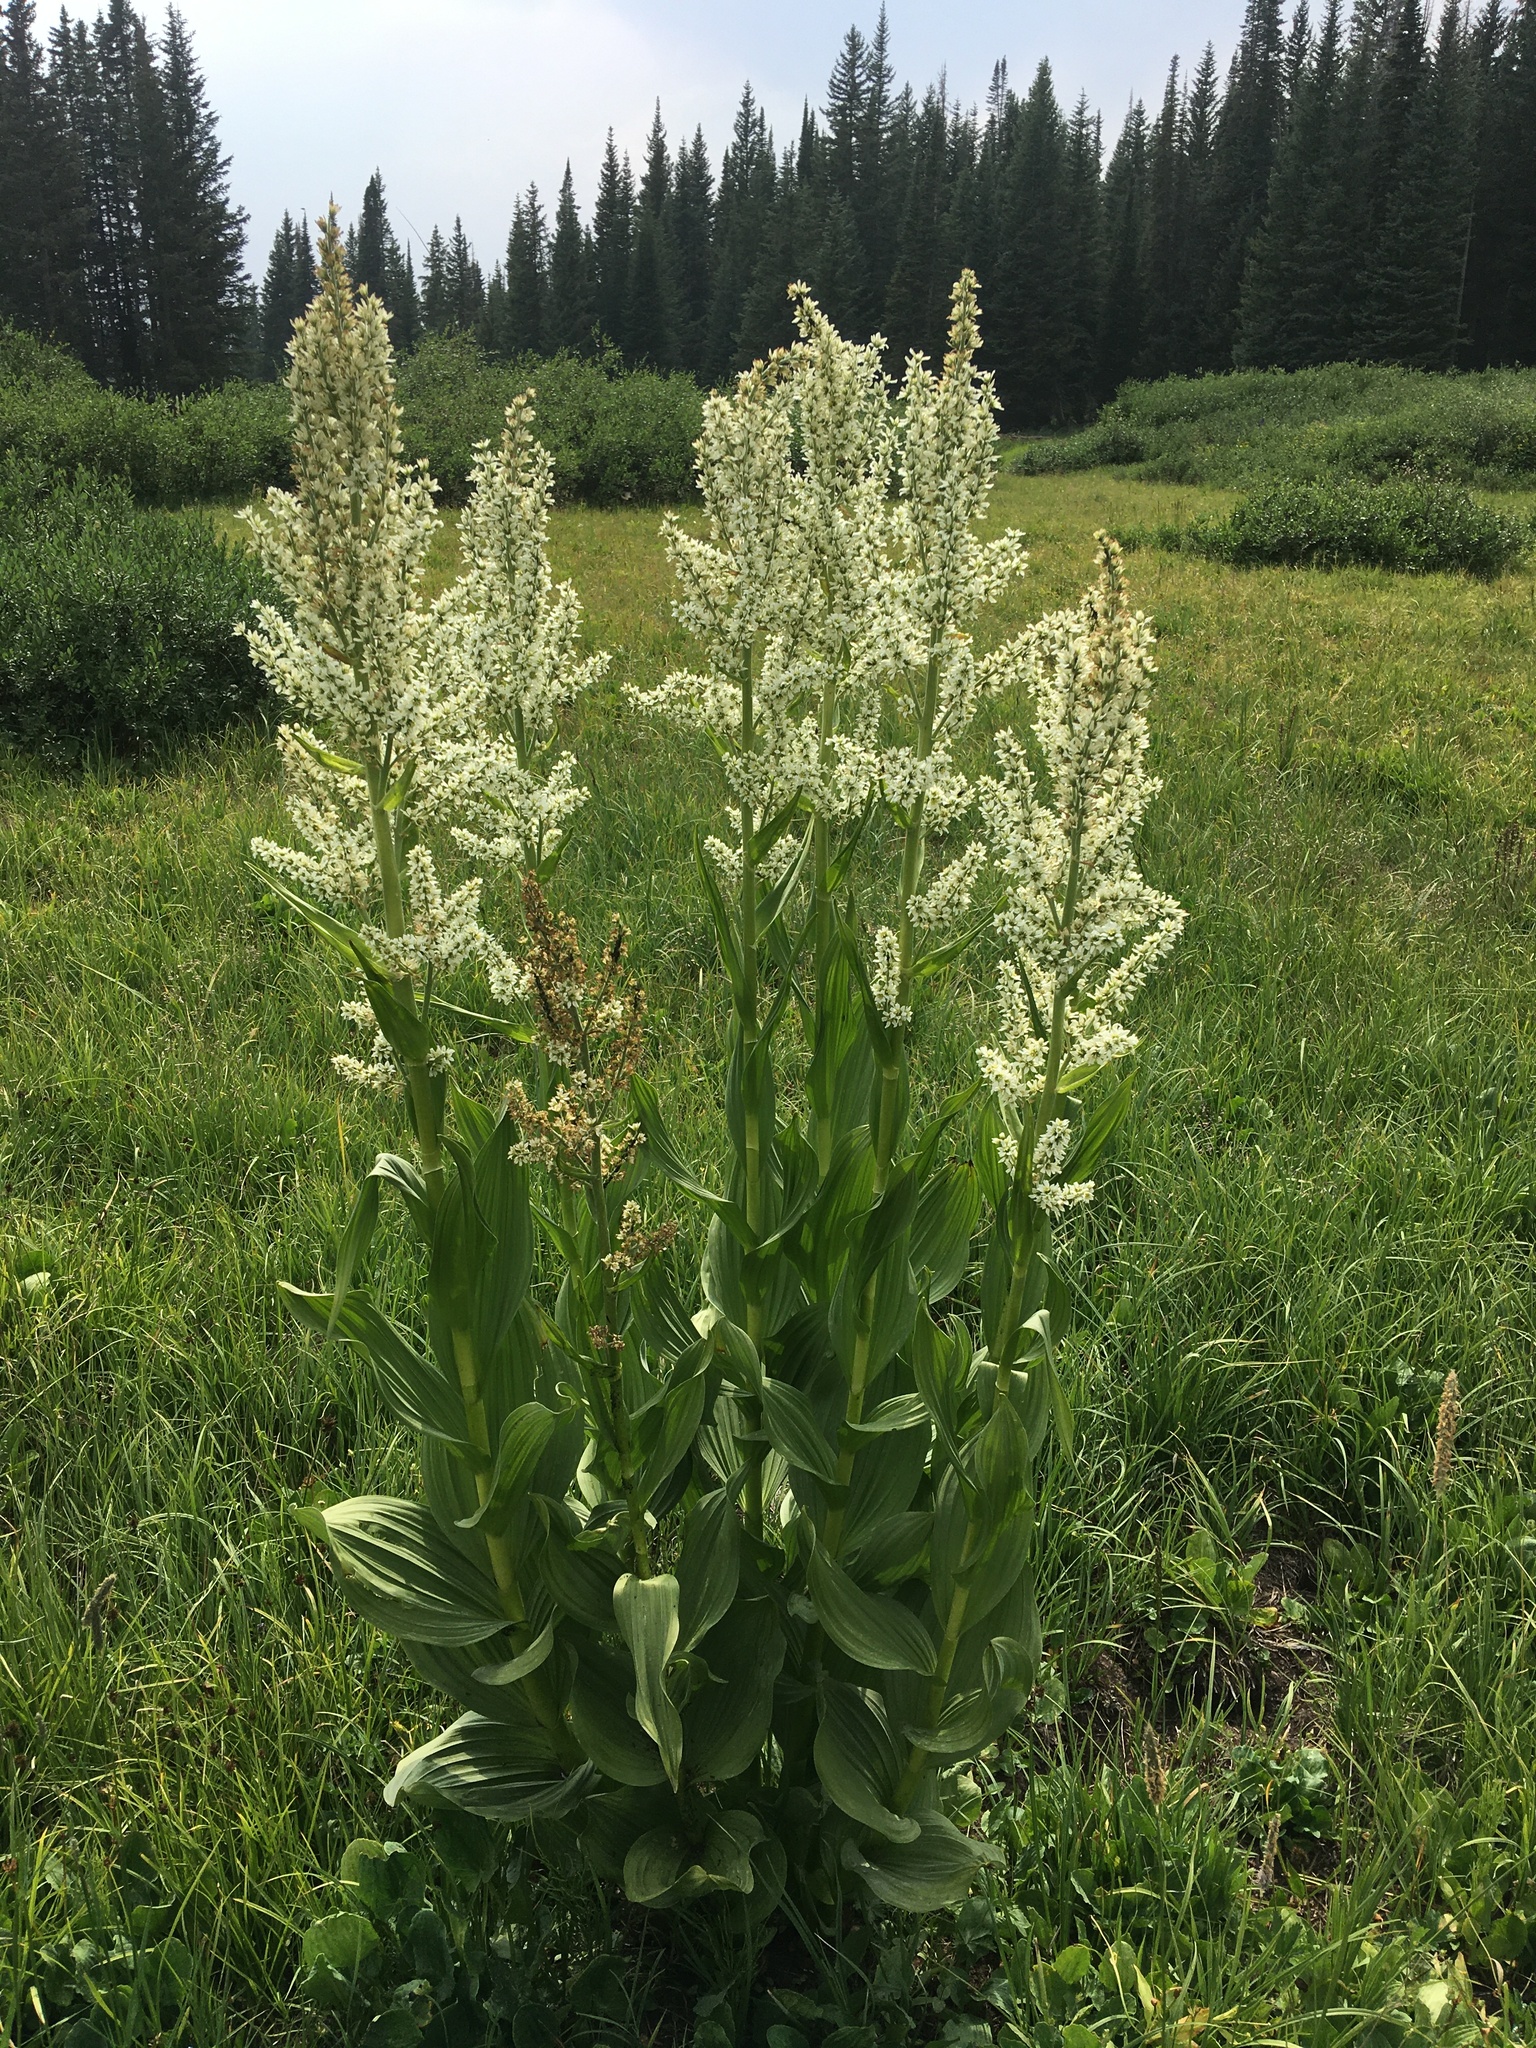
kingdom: Plantae
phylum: Tracheophyta
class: Liliopsida
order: Liliales
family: Melanthiaceae
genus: Veratrum
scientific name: Veratrum californicum
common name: California veratrum
